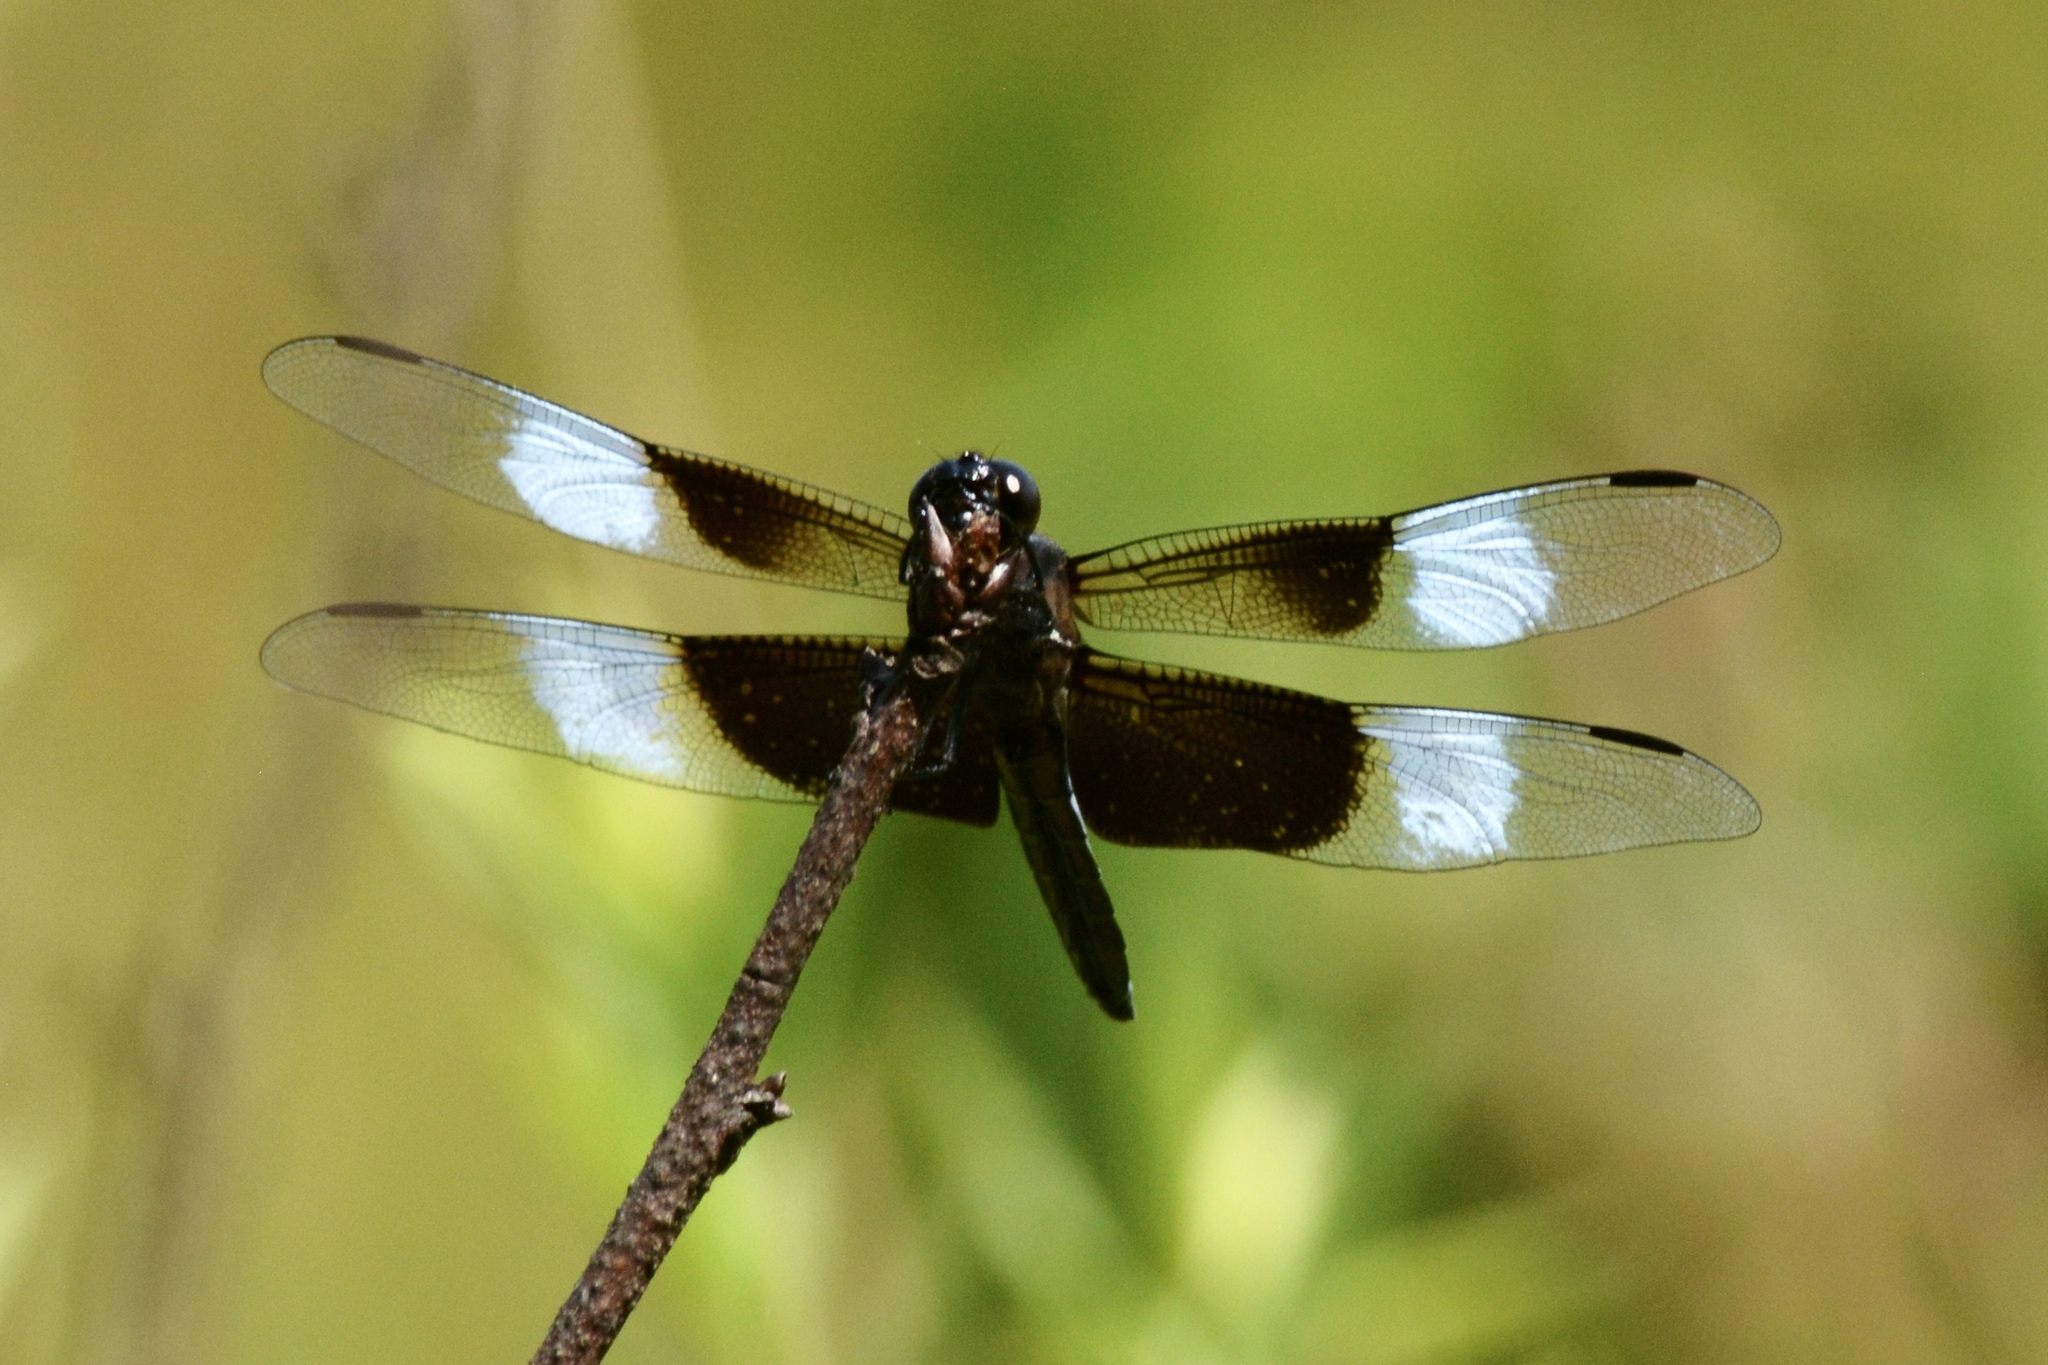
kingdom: Animalia
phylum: Arthropoda
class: Insecta
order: Odonata
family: Libellulidae
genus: Libellula
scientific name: Libellula luctuosa
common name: Widow skimmer
